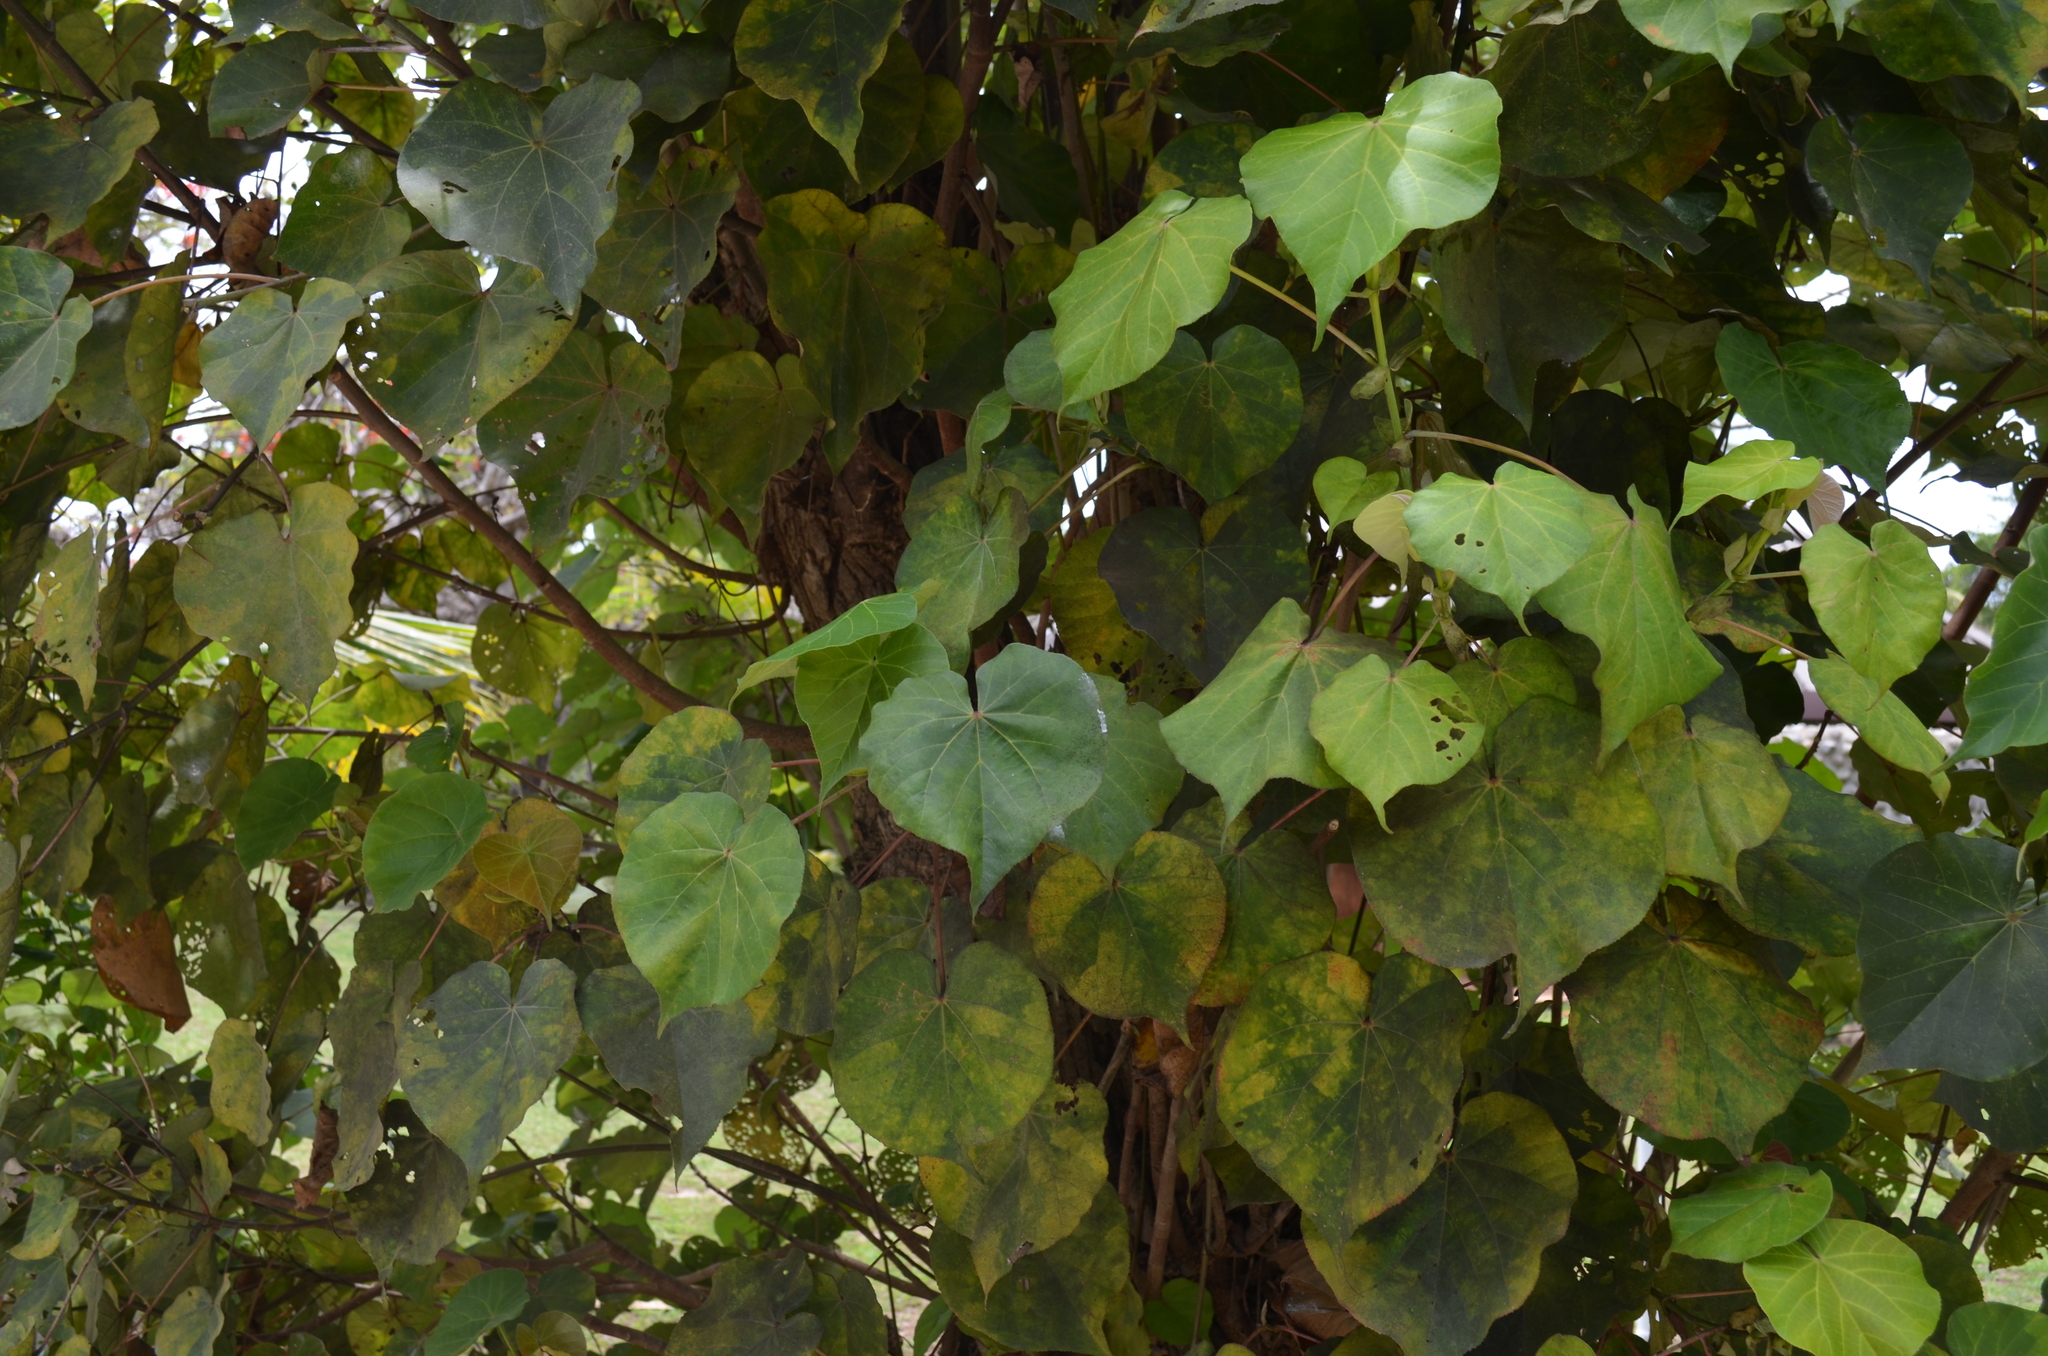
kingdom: Plantae
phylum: Tracheophyta
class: Magnoliopsida
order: Malvales
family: Malvaceae
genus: Talipariti
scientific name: Talipariti tiliaceum
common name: Sea hibiscus
